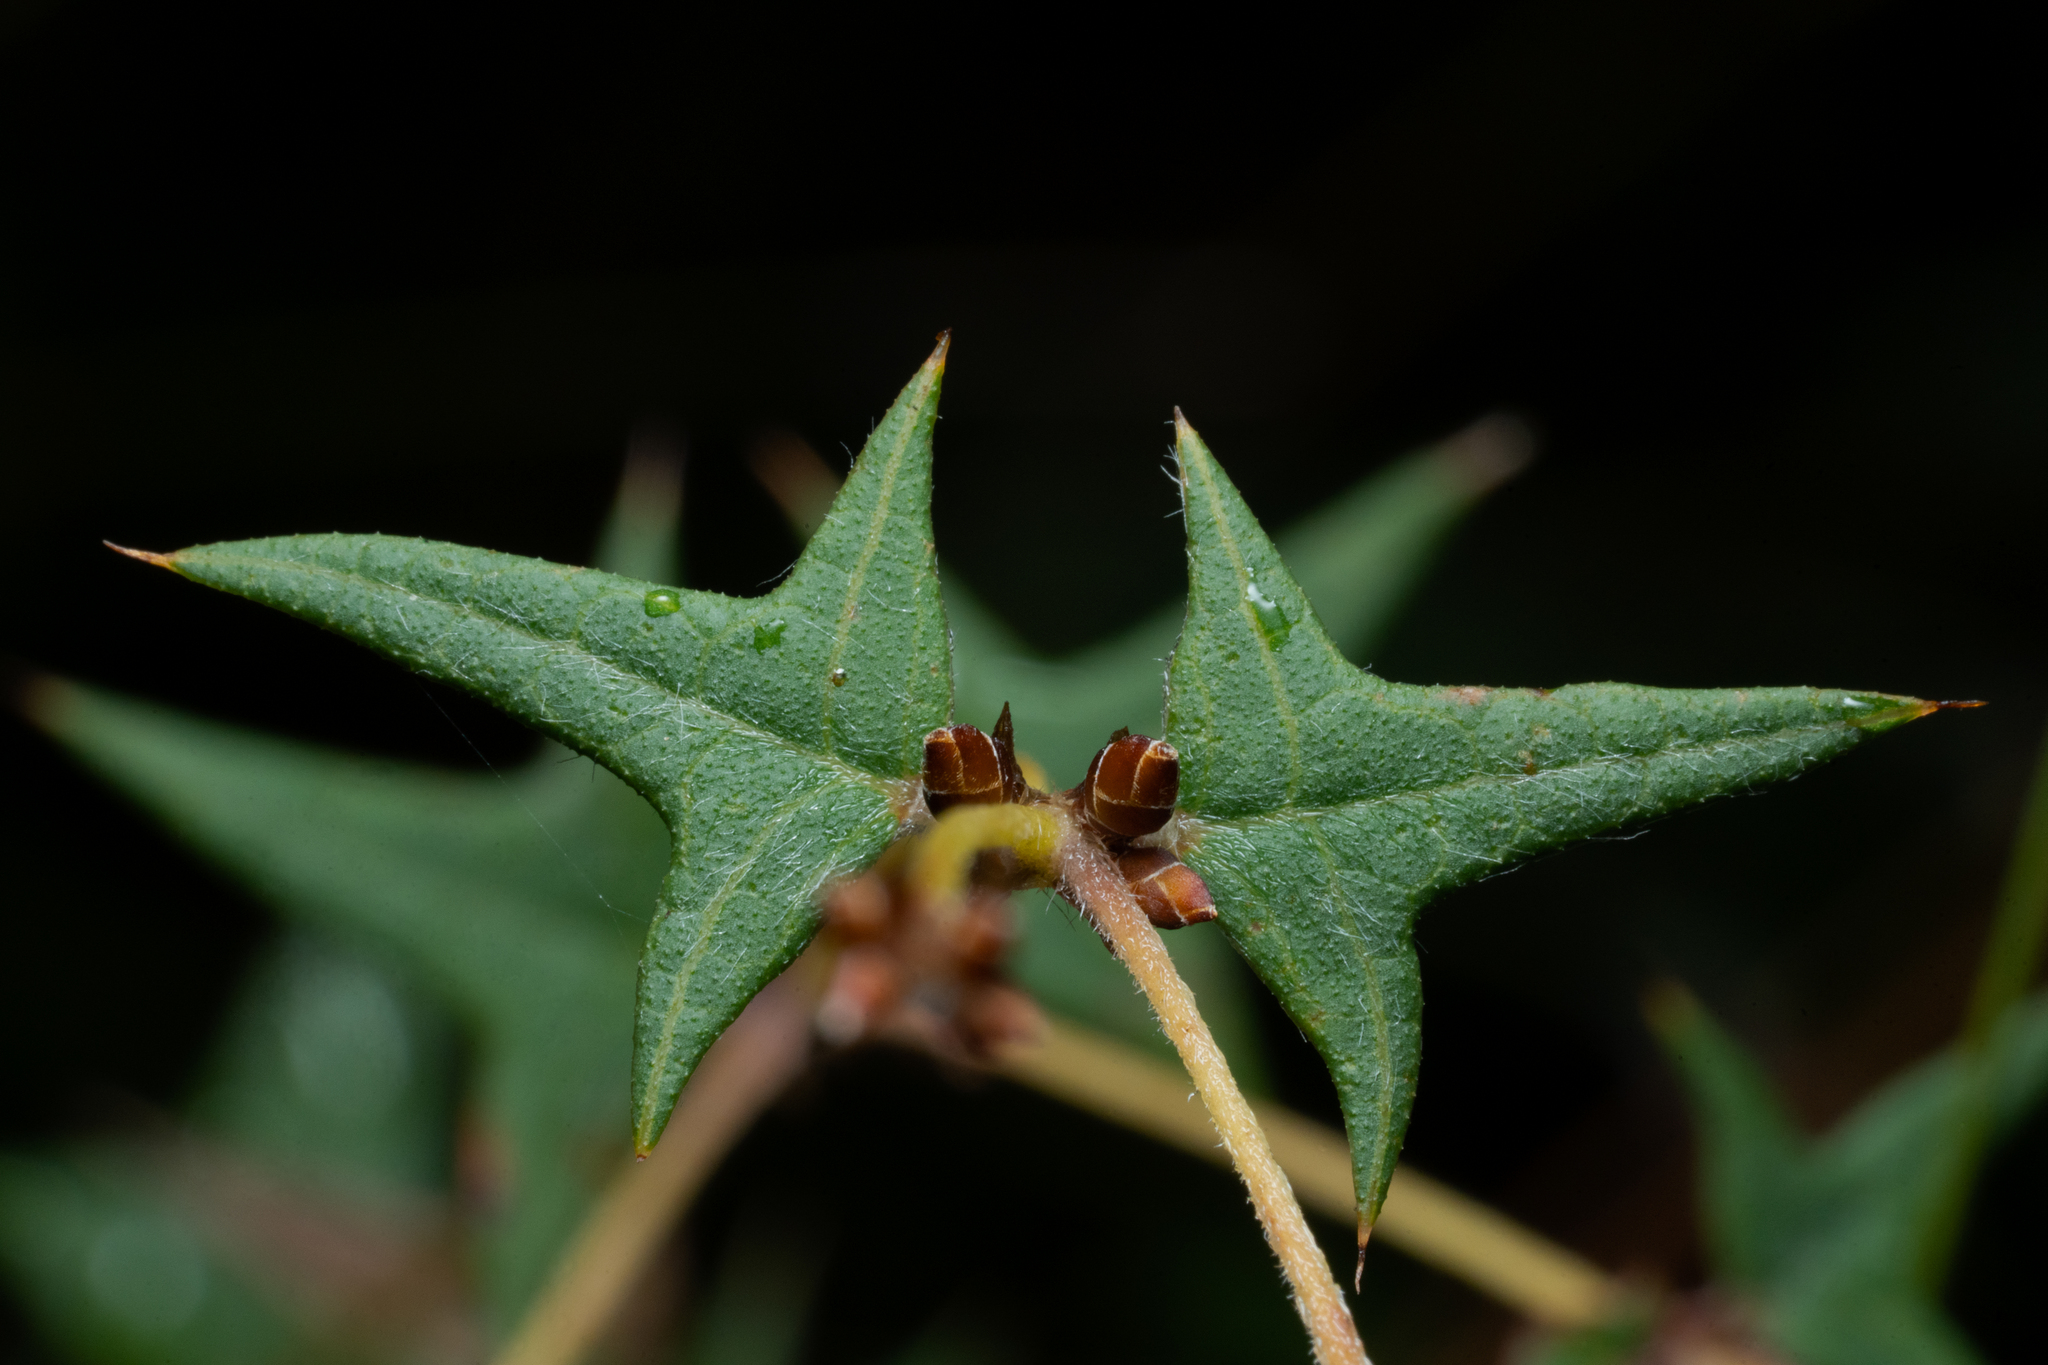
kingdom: Plantae
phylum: Tracheophyta
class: Magnoliopsida
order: Fabales
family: Fabaceae
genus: Platylobium
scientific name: Platylobium obtusangulum
